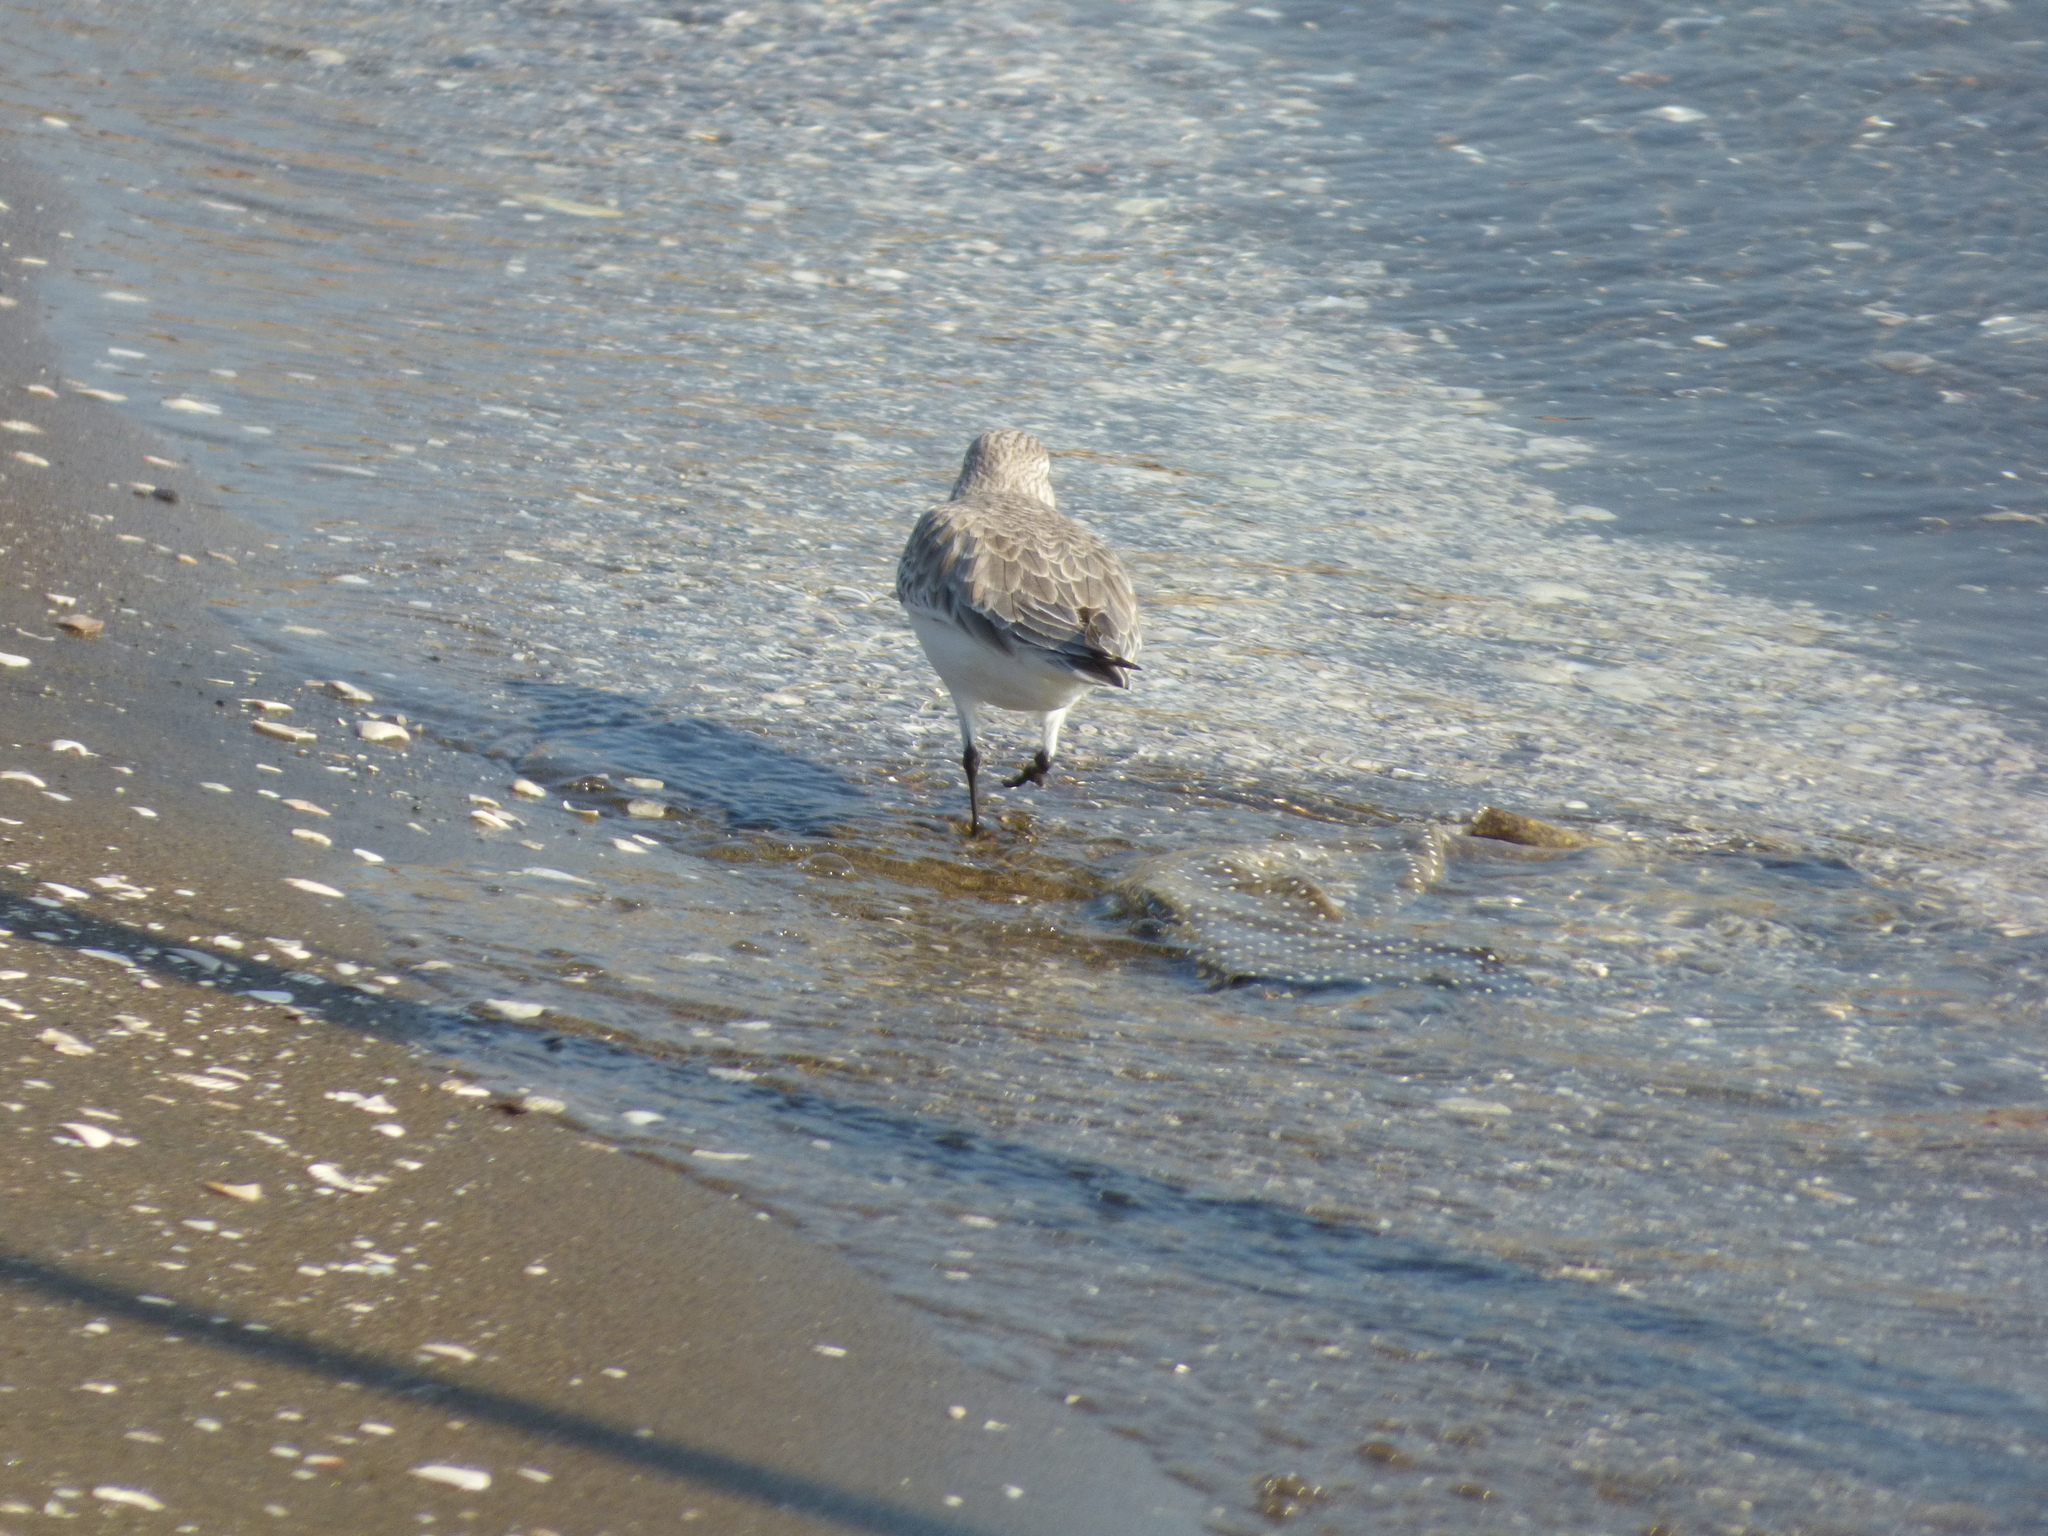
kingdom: Animalia
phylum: Chordata
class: Aves
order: Charadriiformes
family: Scolopacidae
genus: Calidris
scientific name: Calidris alba
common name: Sanderling
